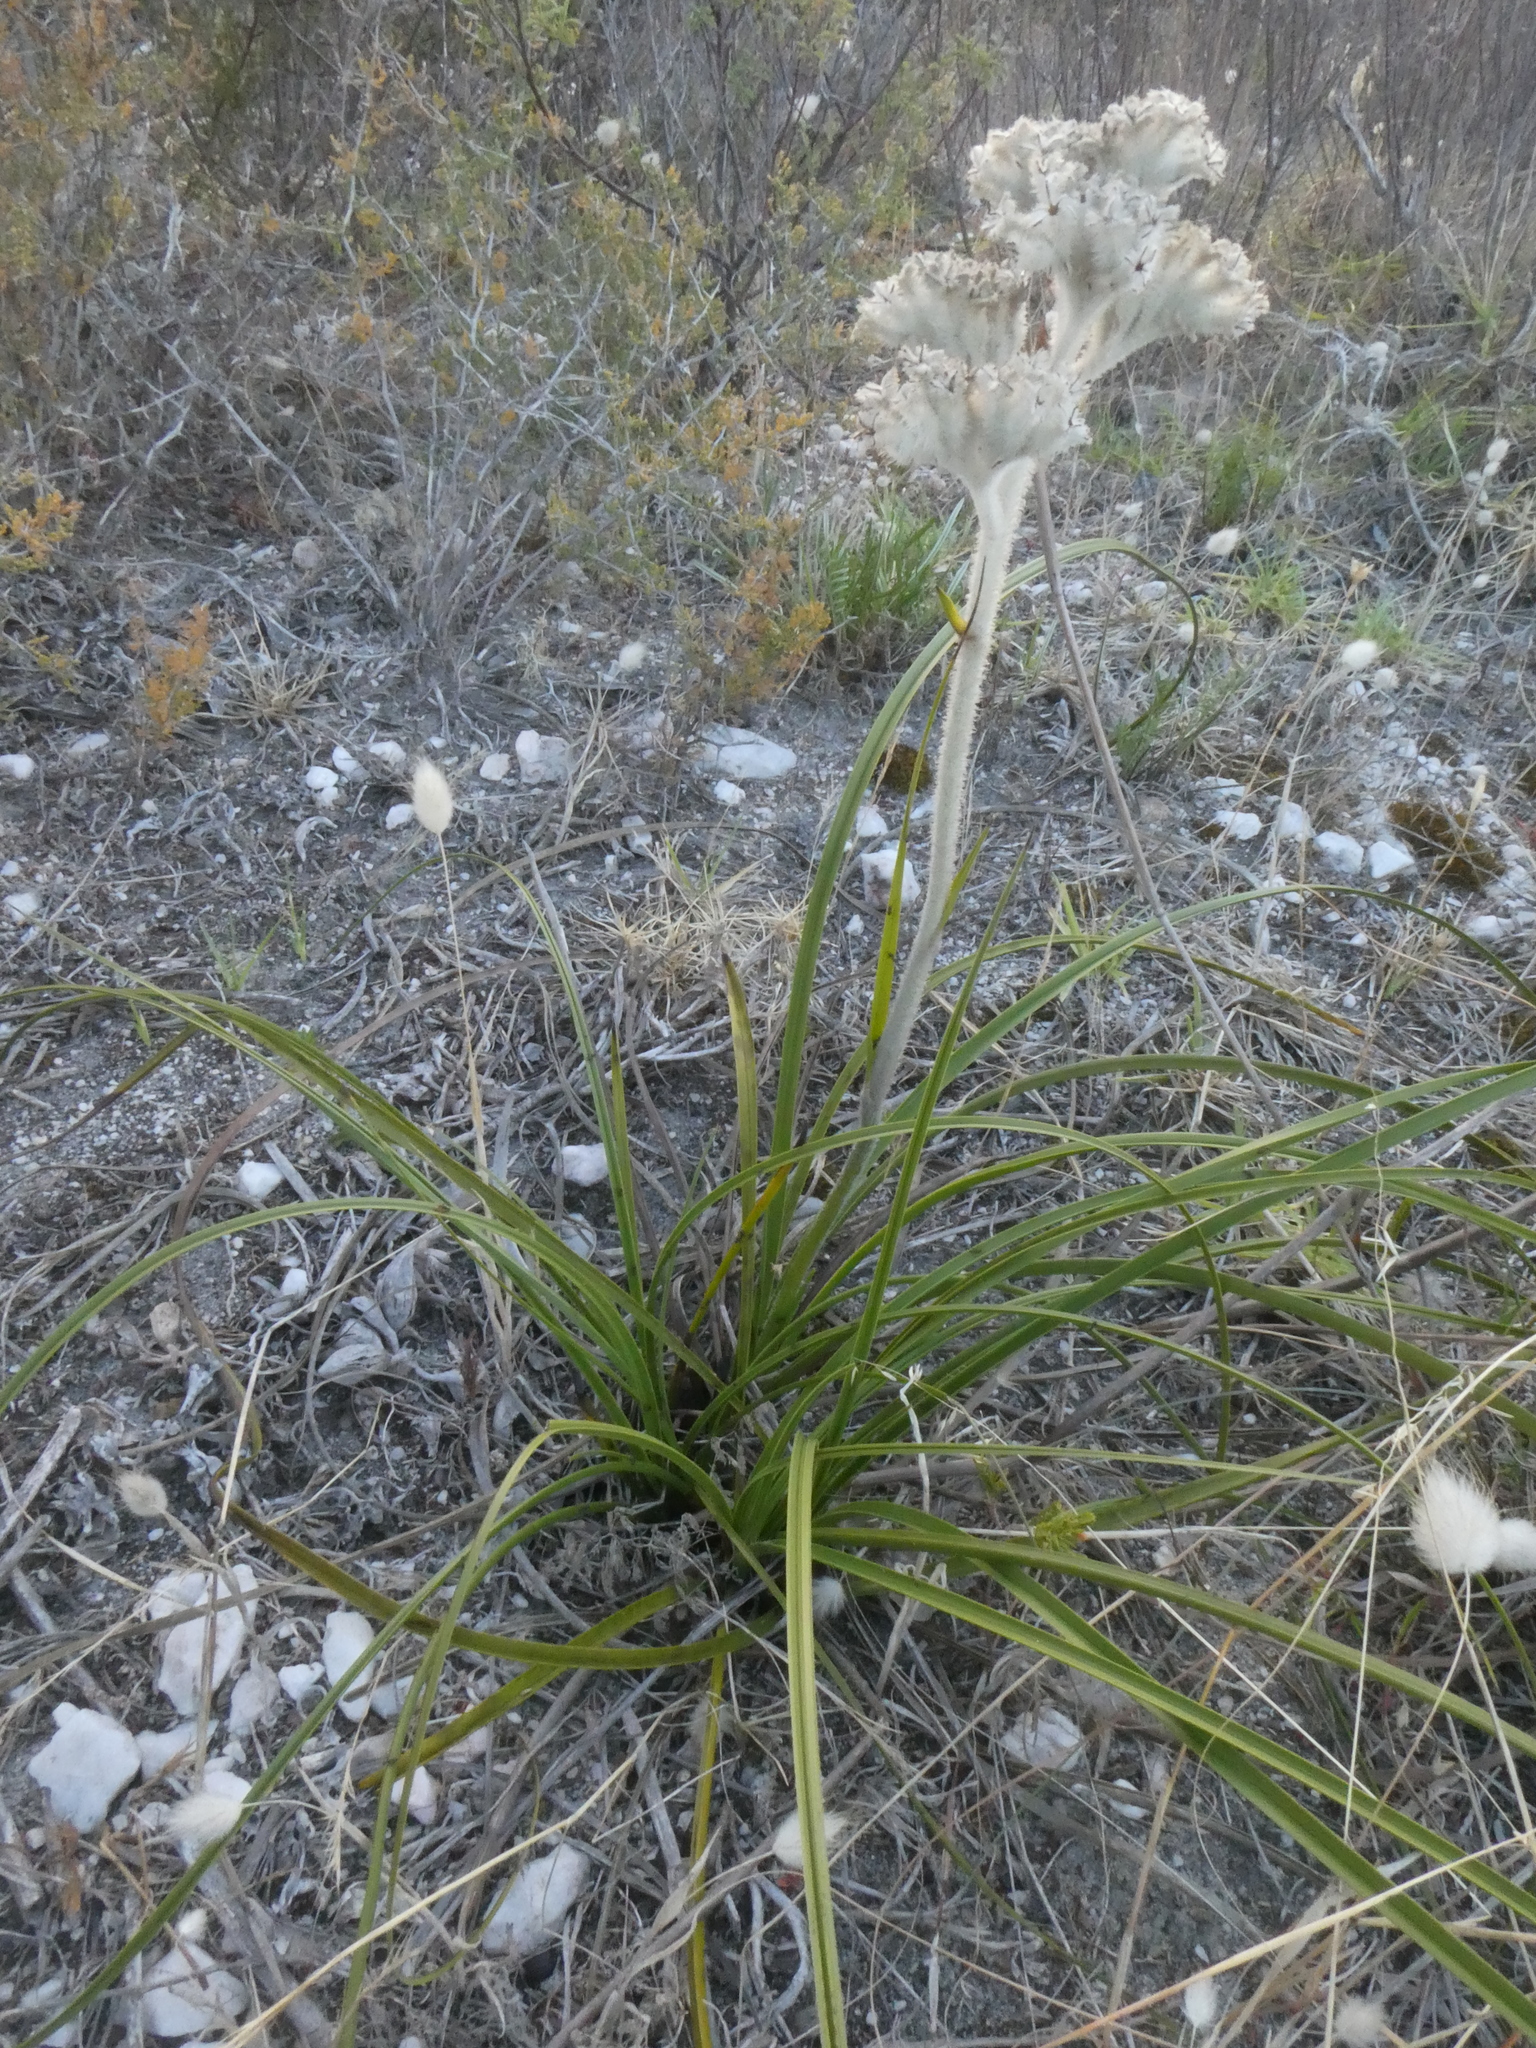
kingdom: Plantae
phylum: Tracheophyta
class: Liliopsida
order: Asparagales
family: Lanariaceae
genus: Lanaria
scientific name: Lanaria lanata
